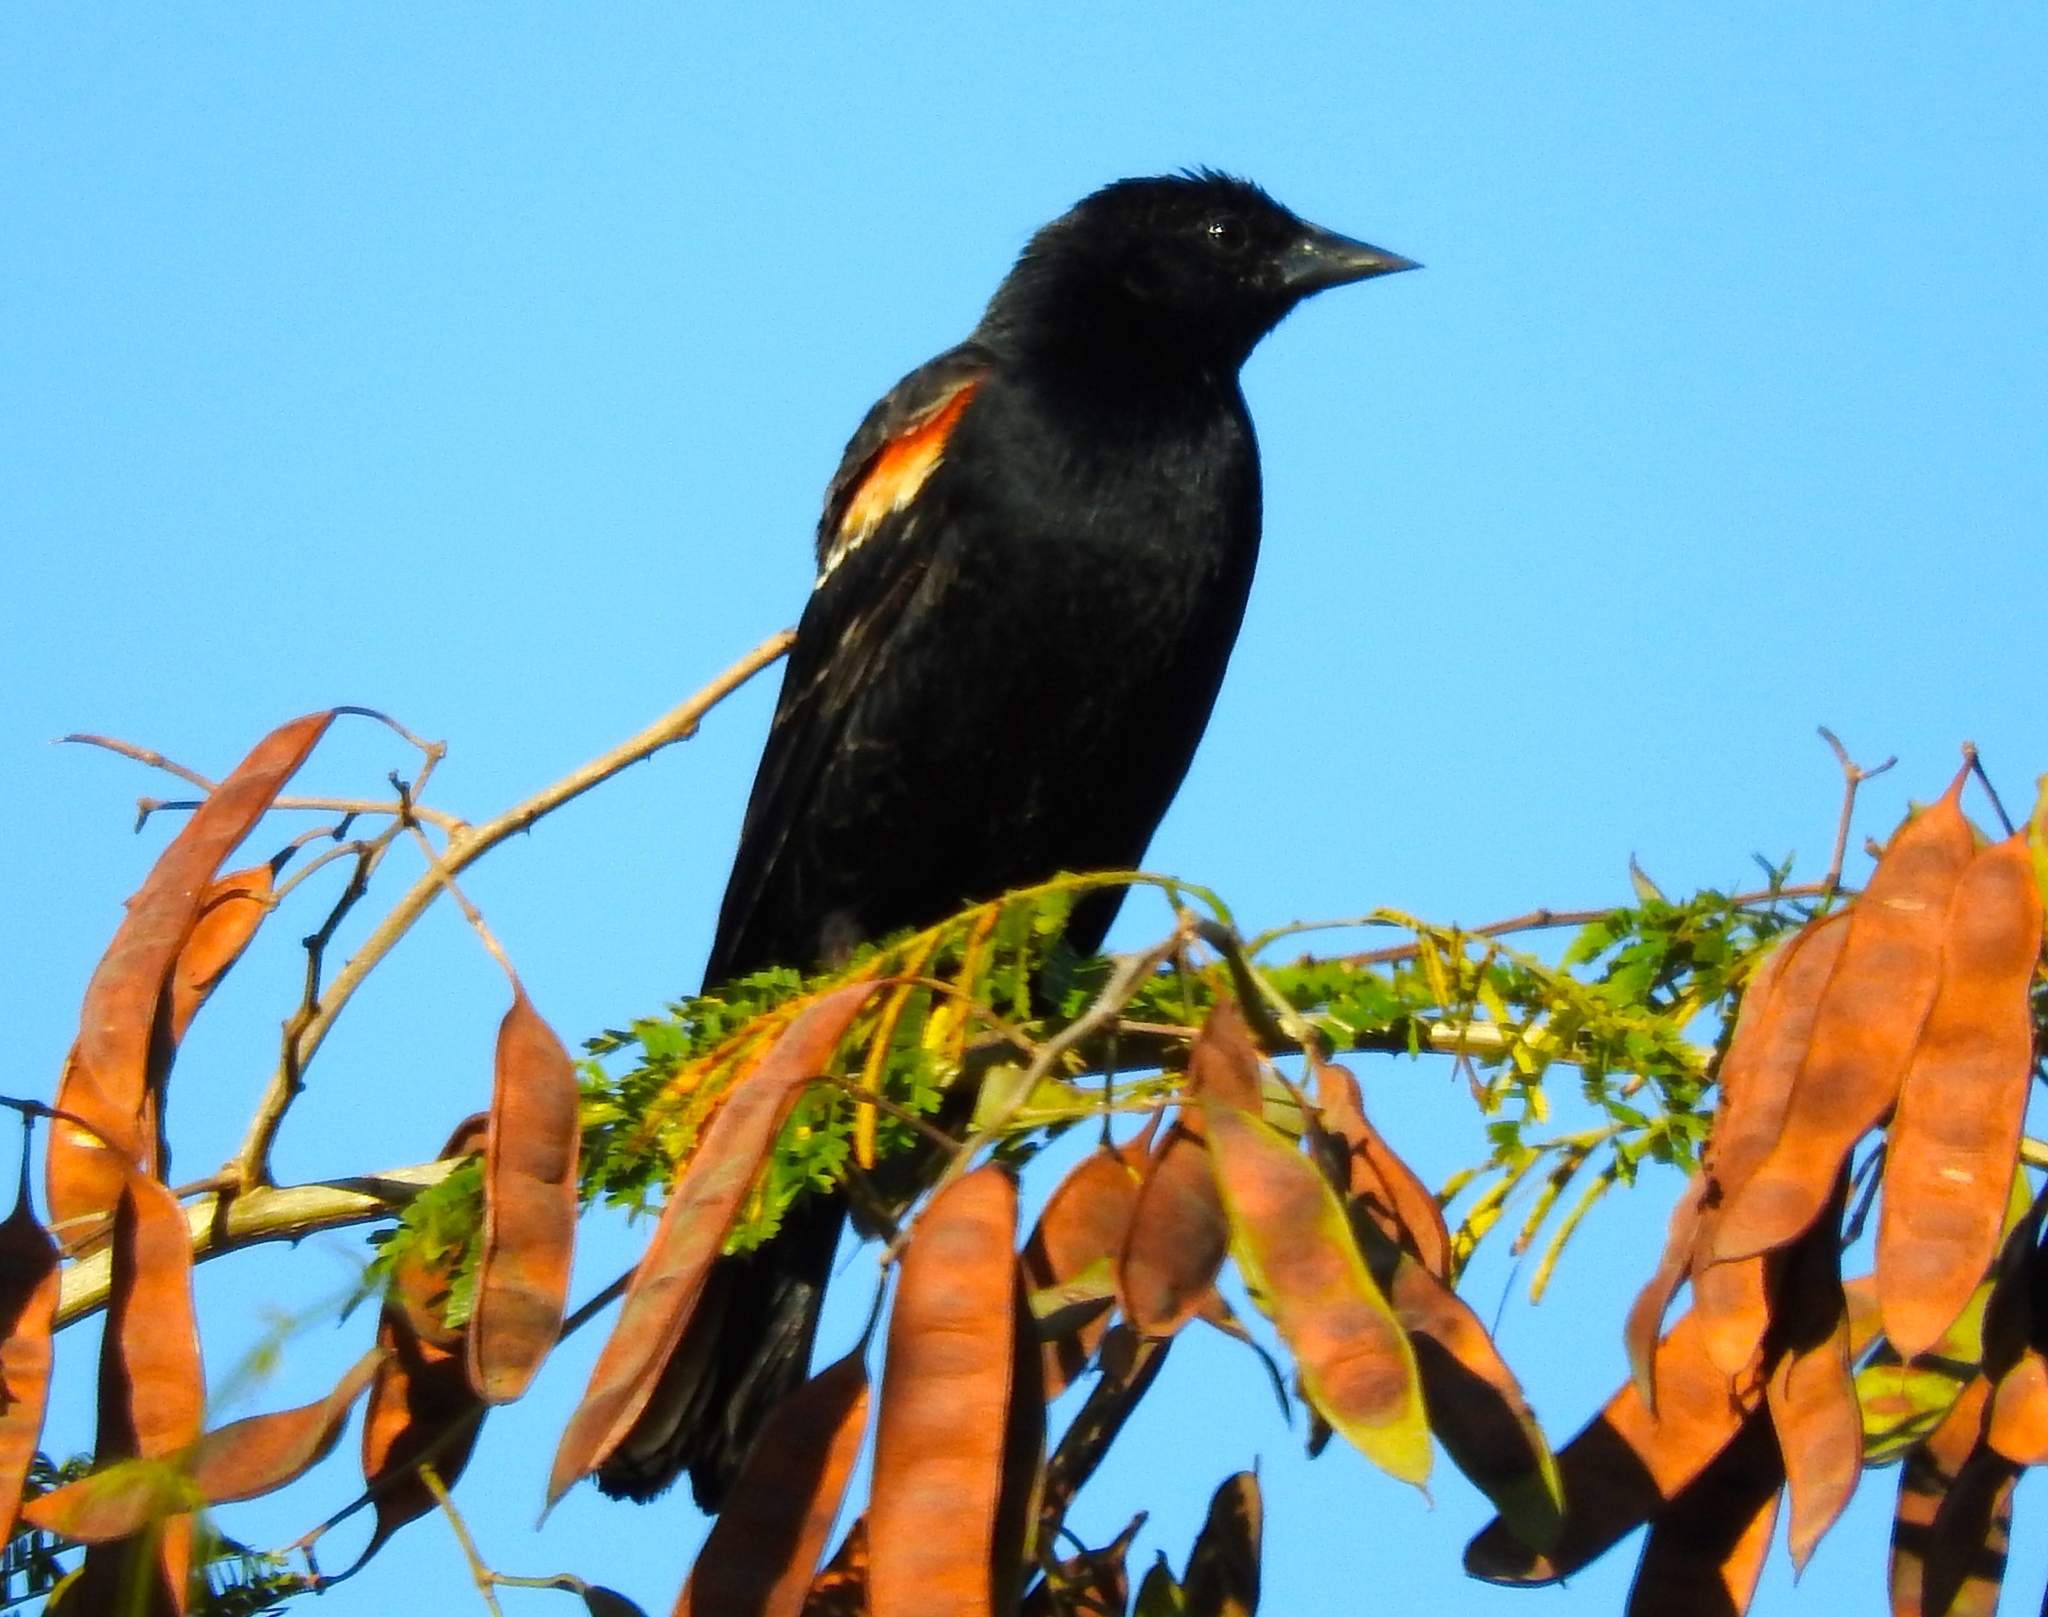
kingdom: Animalia
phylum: Chordata
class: Aves
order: Passeriformes
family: Icteridae
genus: Agelaius
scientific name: Agelaius phoeniceus
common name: Red-winged blackbird
